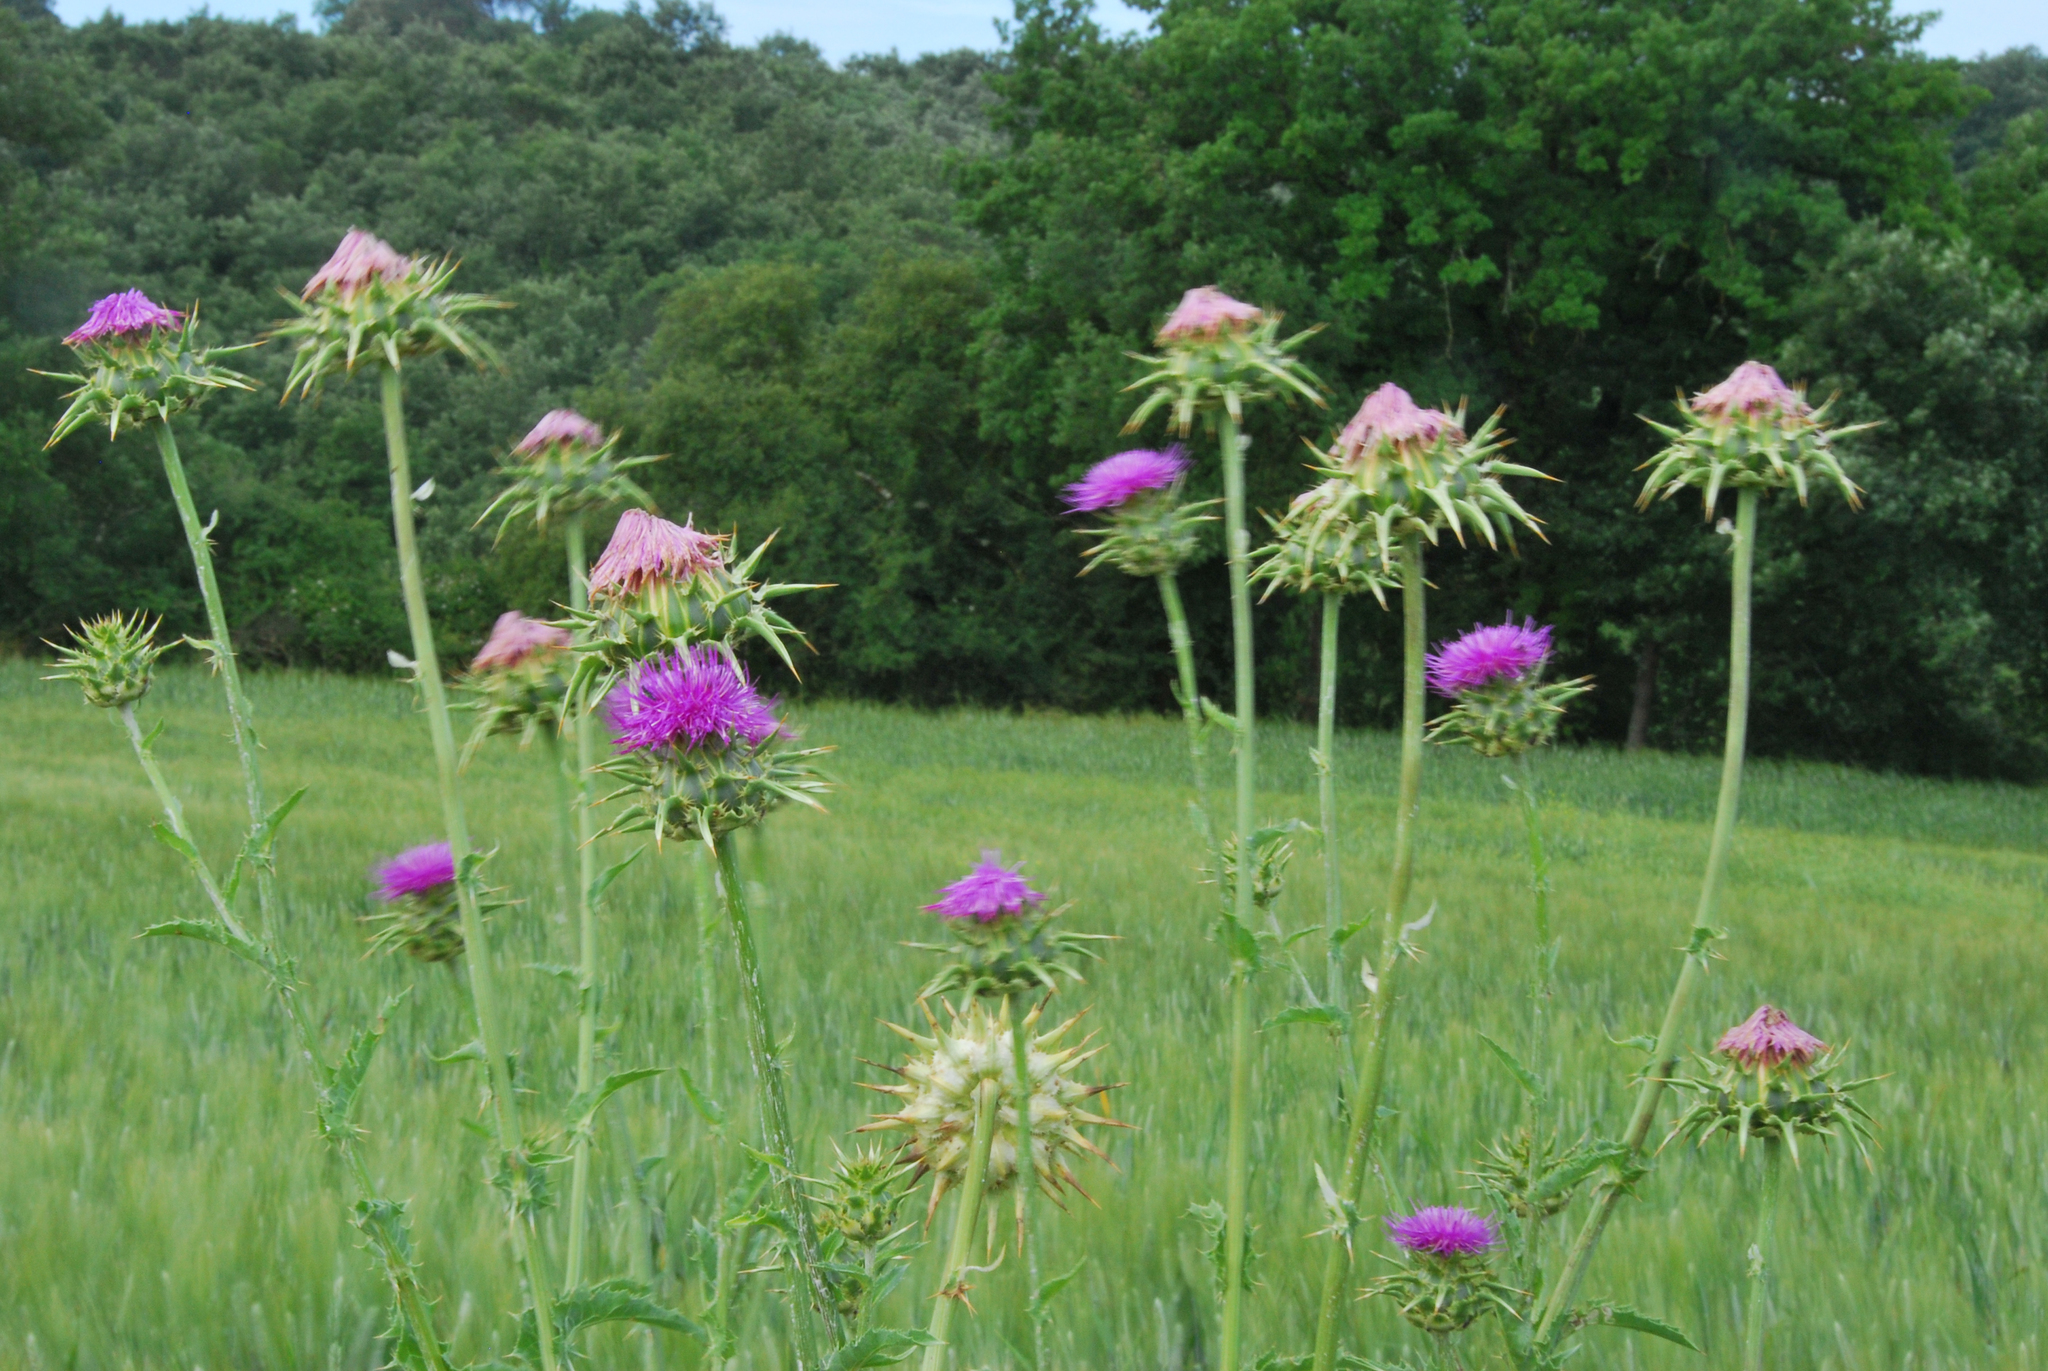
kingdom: Plantae
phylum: Tracheophyta
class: Magnoliopsida
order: Asterales
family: Asteraceae
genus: Silybum
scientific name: Silybum marianum
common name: Milk thistle
